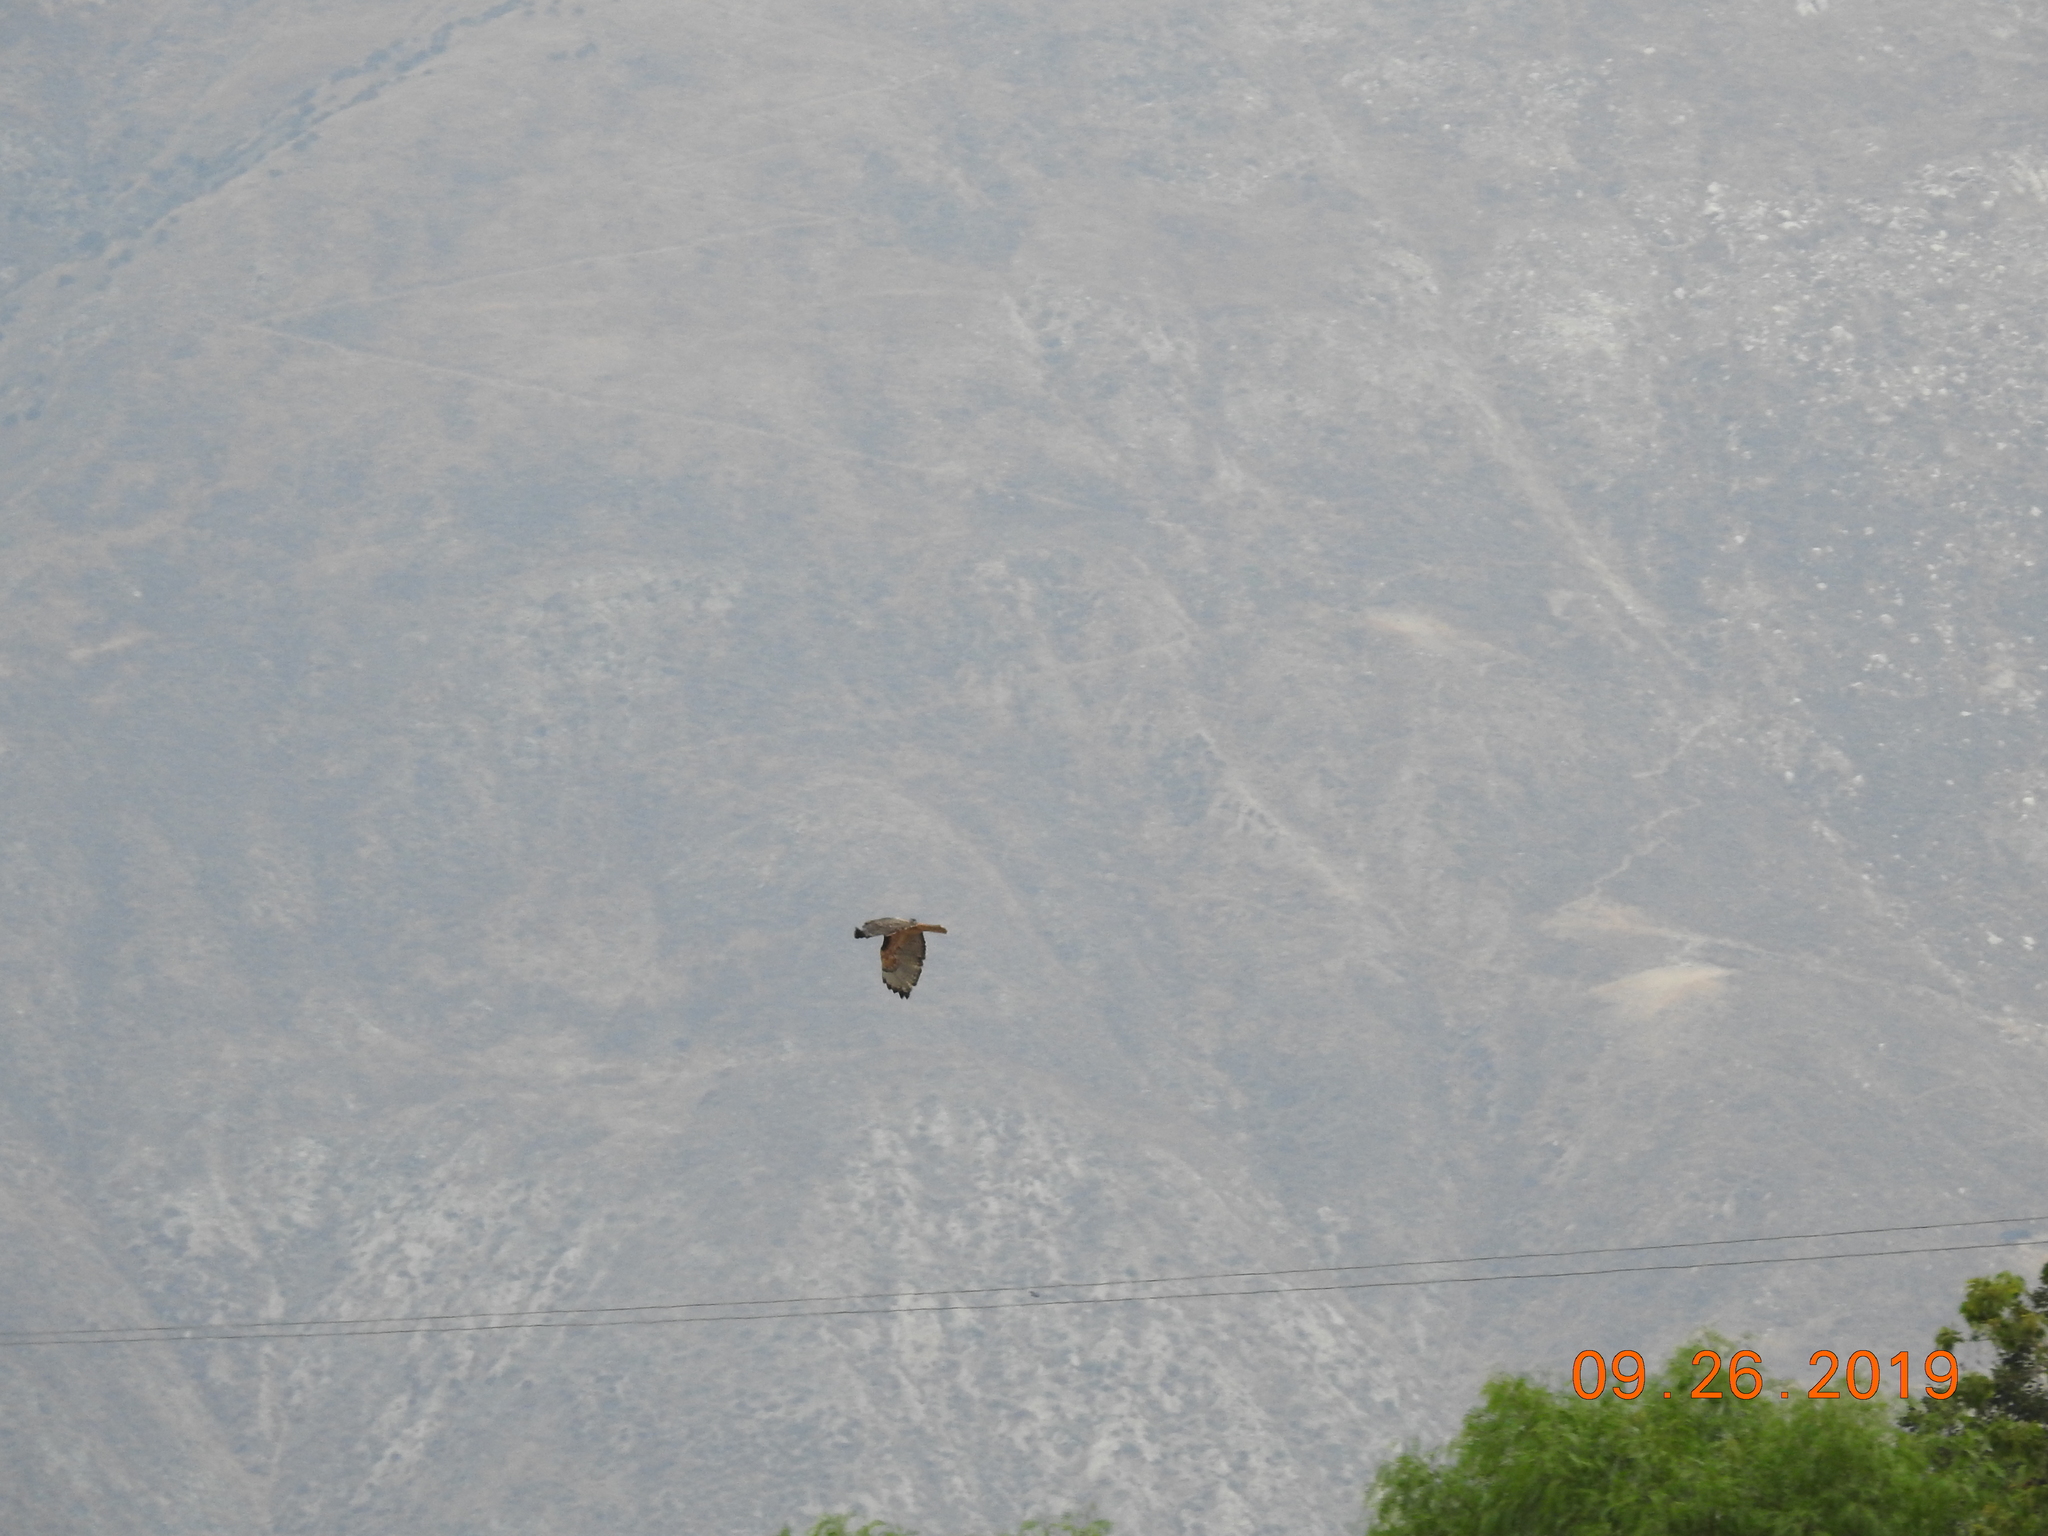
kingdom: Animalia
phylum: Chordata
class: Aves
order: Accipitriformes
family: Accipitridae
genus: Buteo
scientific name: Buteo jamaicensis
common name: Red-tailed hawk
